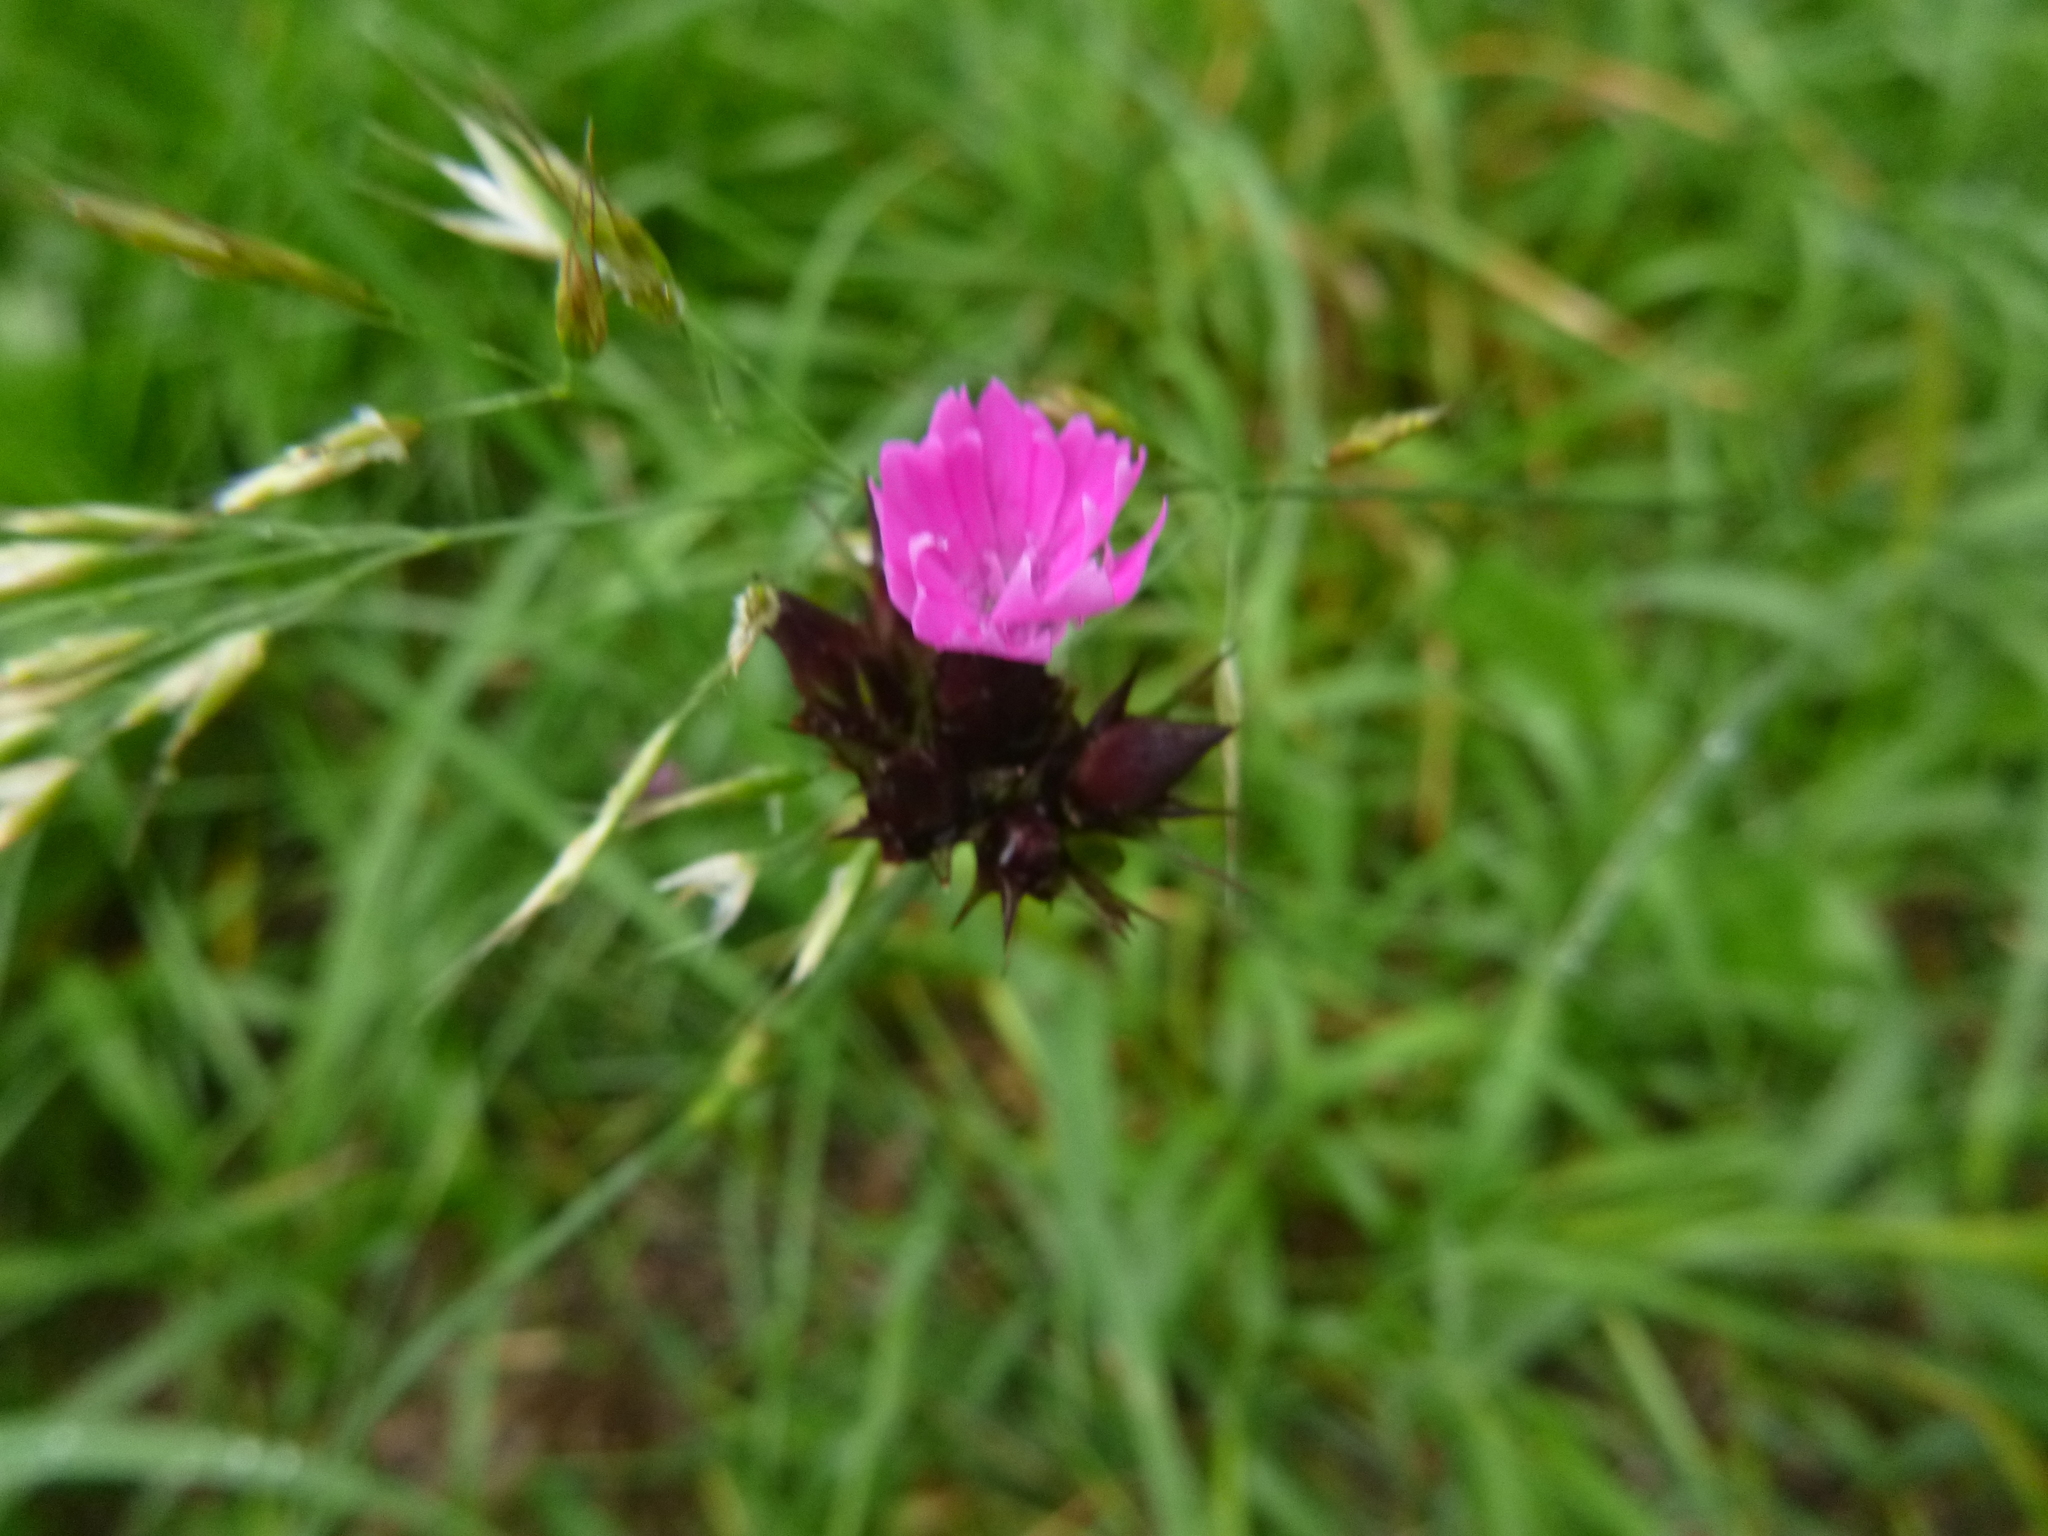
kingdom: Plantae
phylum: Tracheophyta
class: Magnoliopsida
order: Caryophyllales
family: Caryophyllaceae
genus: Dianthus
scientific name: Dianthus carthusianorum
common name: Carthusian pink
